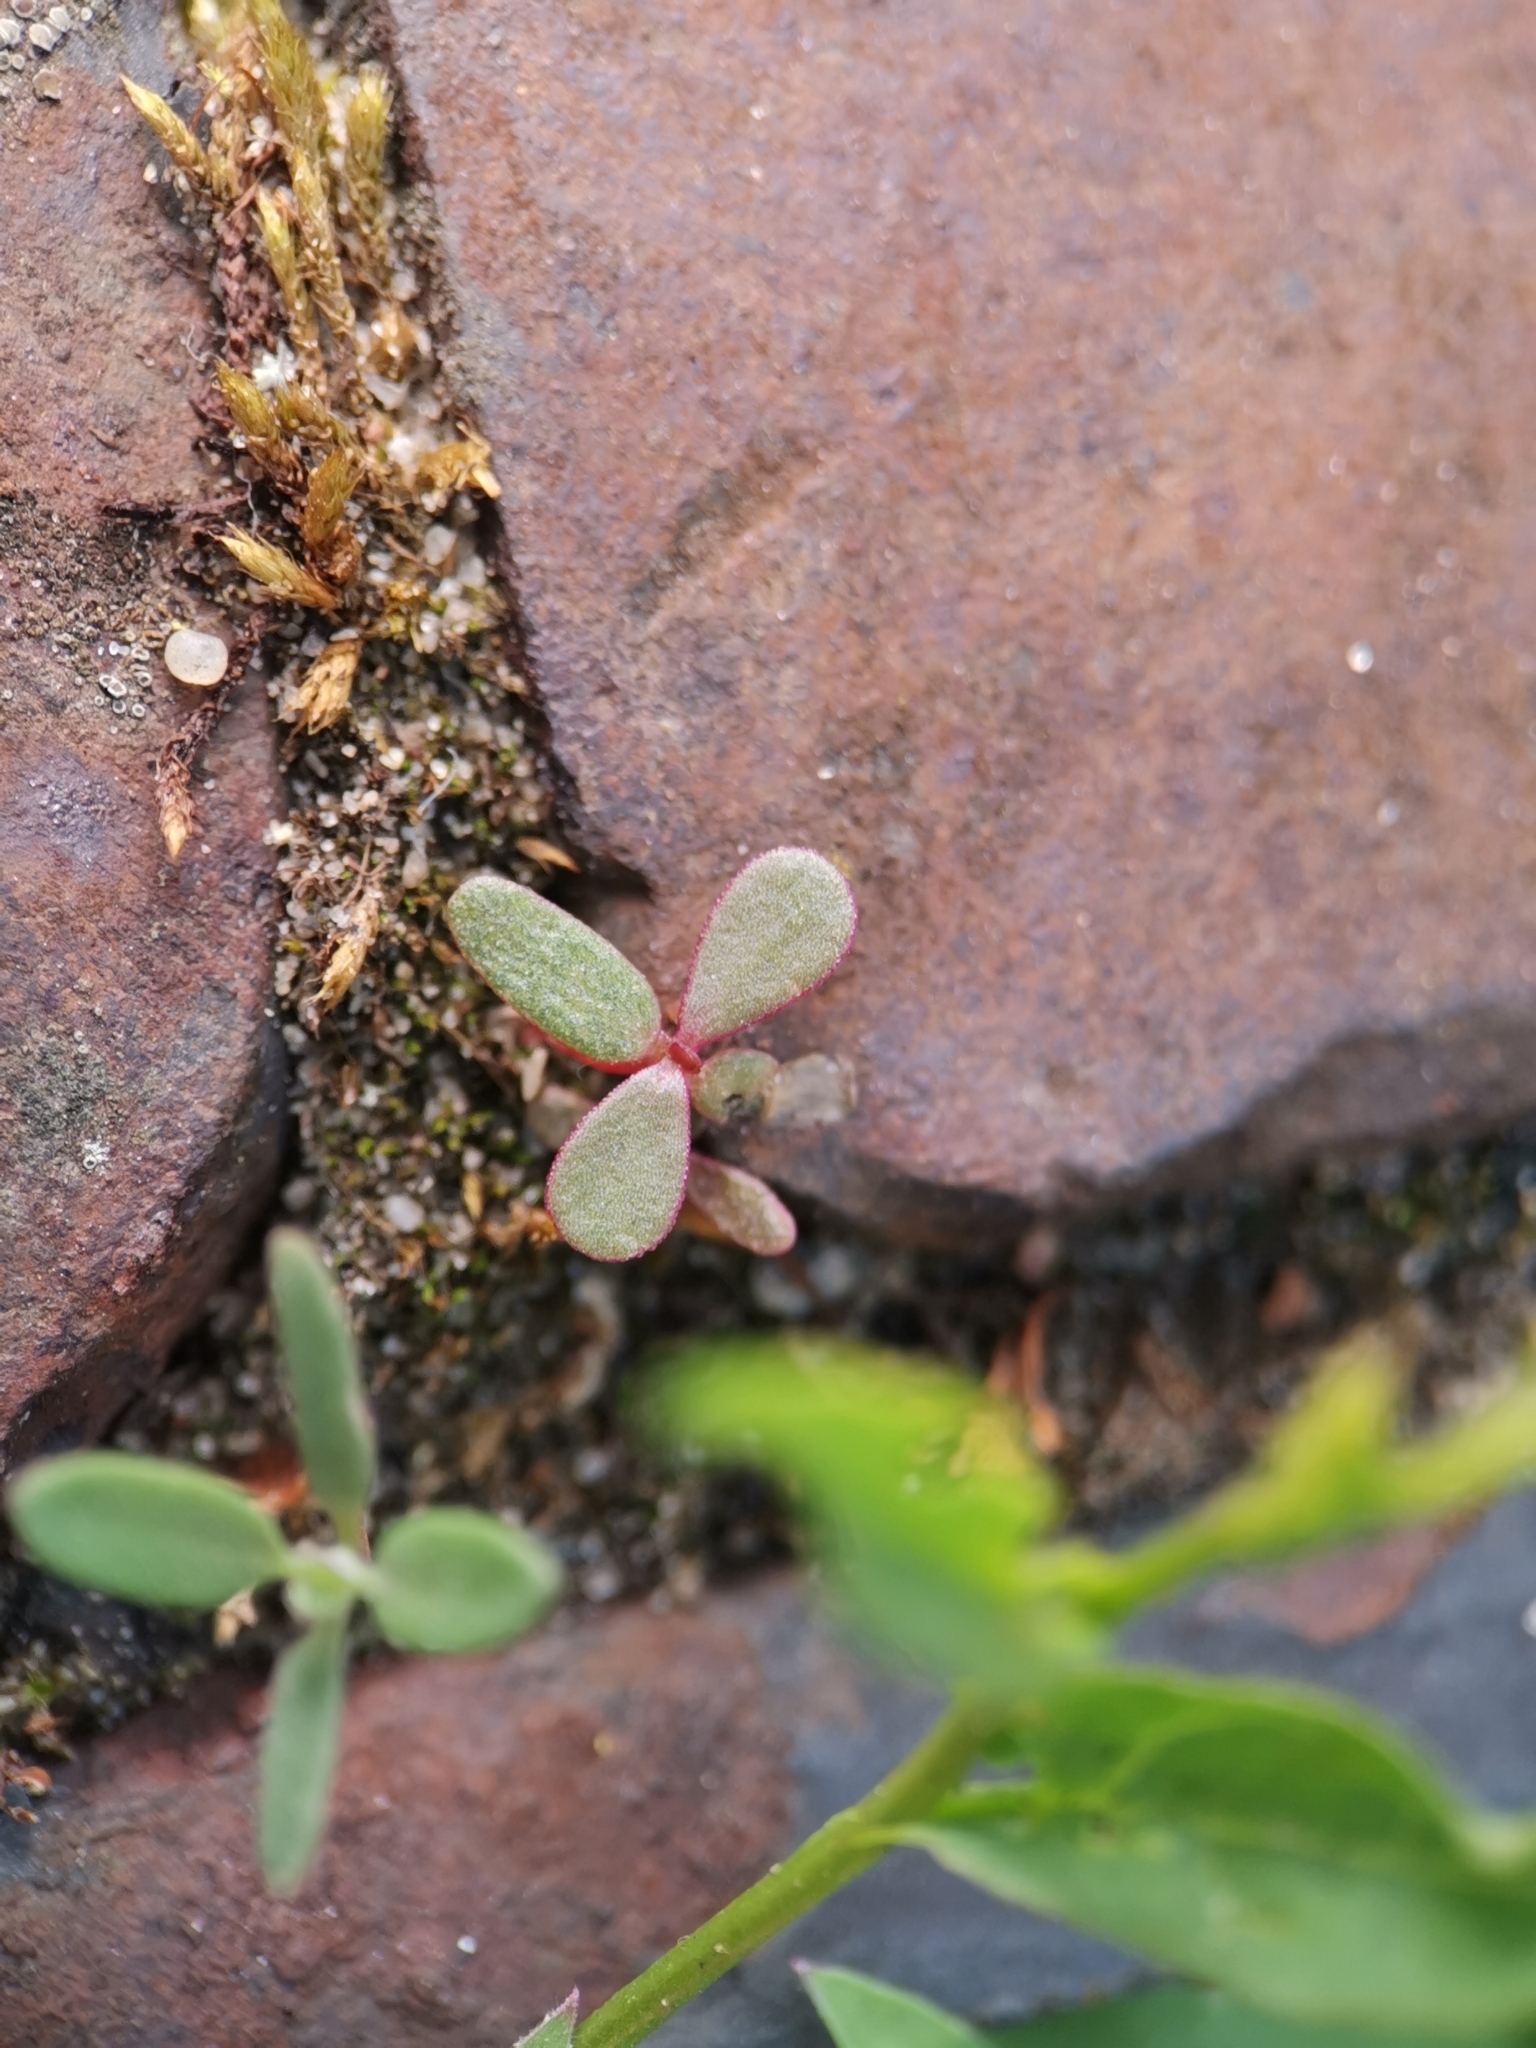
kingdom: Plantae
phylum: Tracheophyta
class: Magnoliopsida
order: Caryophyllales
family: Portulacaceae
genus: Portulaca
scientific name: Portulaca oleracea
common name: Common purslane
